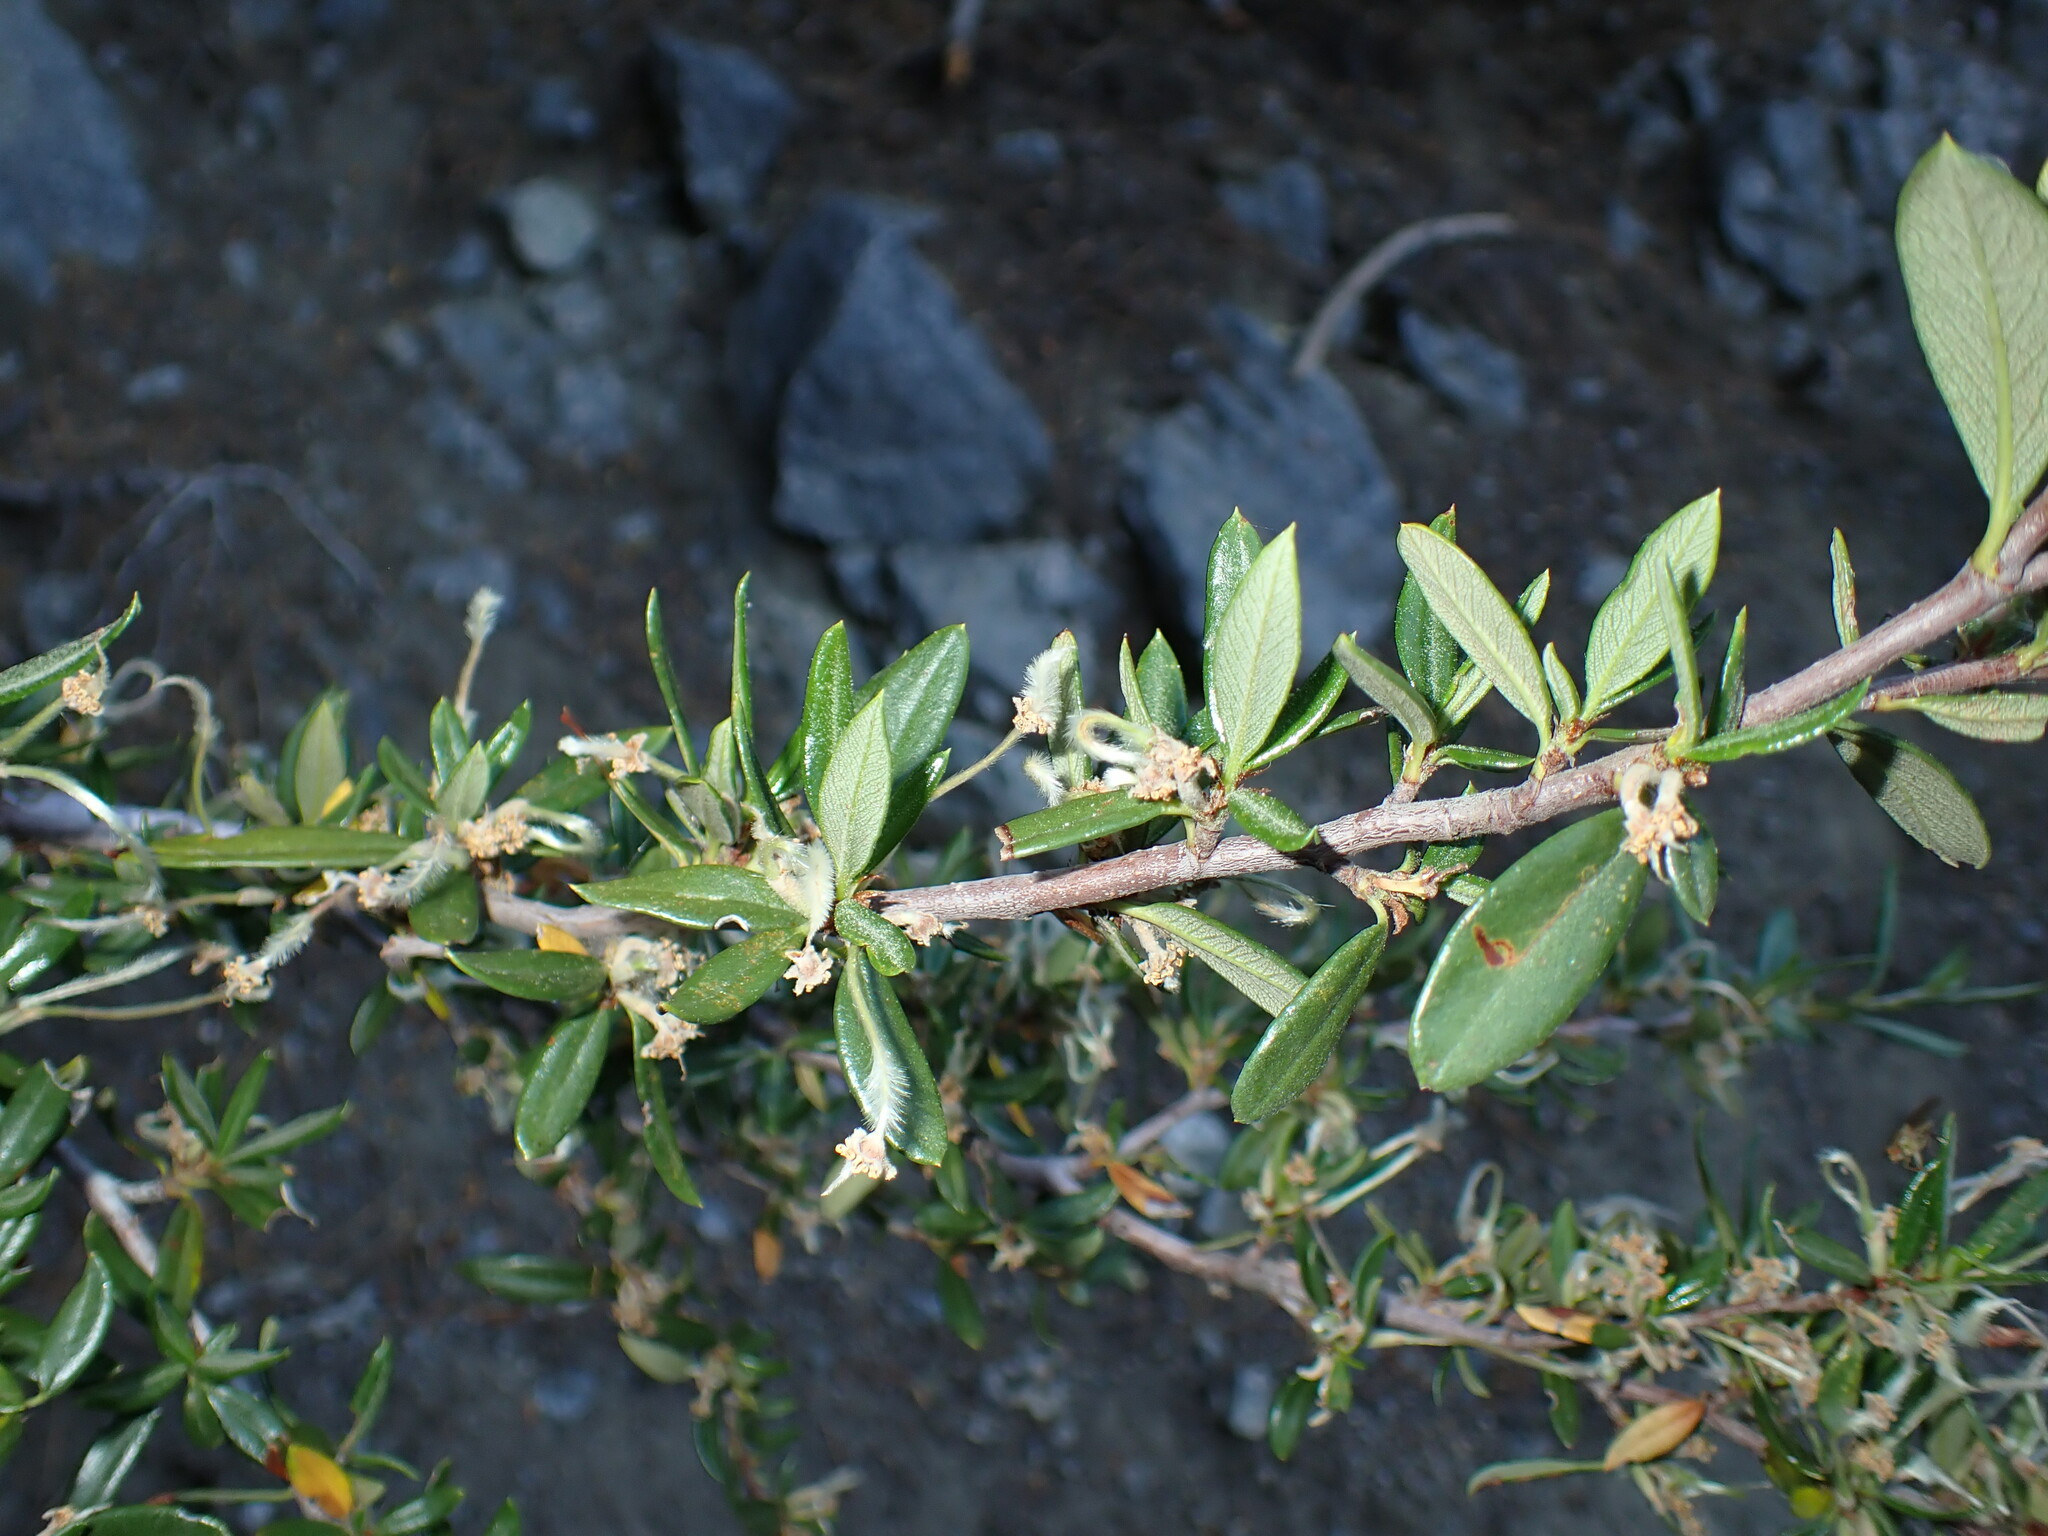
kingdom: Plantae
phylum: Tracheophyta
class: Magnoliopsida
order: Rosales
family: Rosaceae
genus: Cercocarpus
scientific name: Cercocarpus ledifolius
